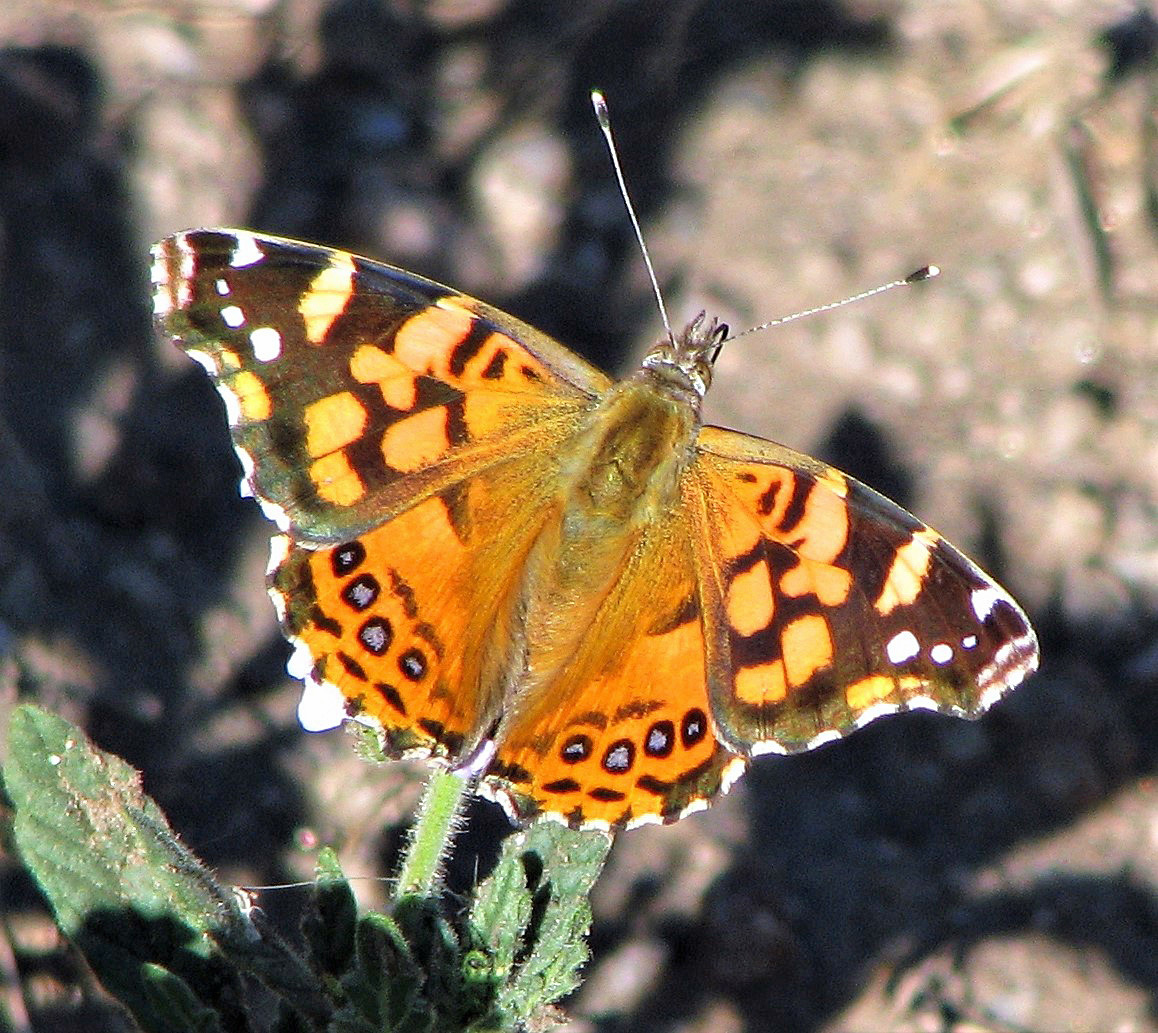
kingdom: Animalia
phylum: Arthropoda
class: Insecta
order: Lepidoptera
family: Nymphalidae
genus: Vanessa
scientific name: Vanessa carye
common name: Subtropical lady
